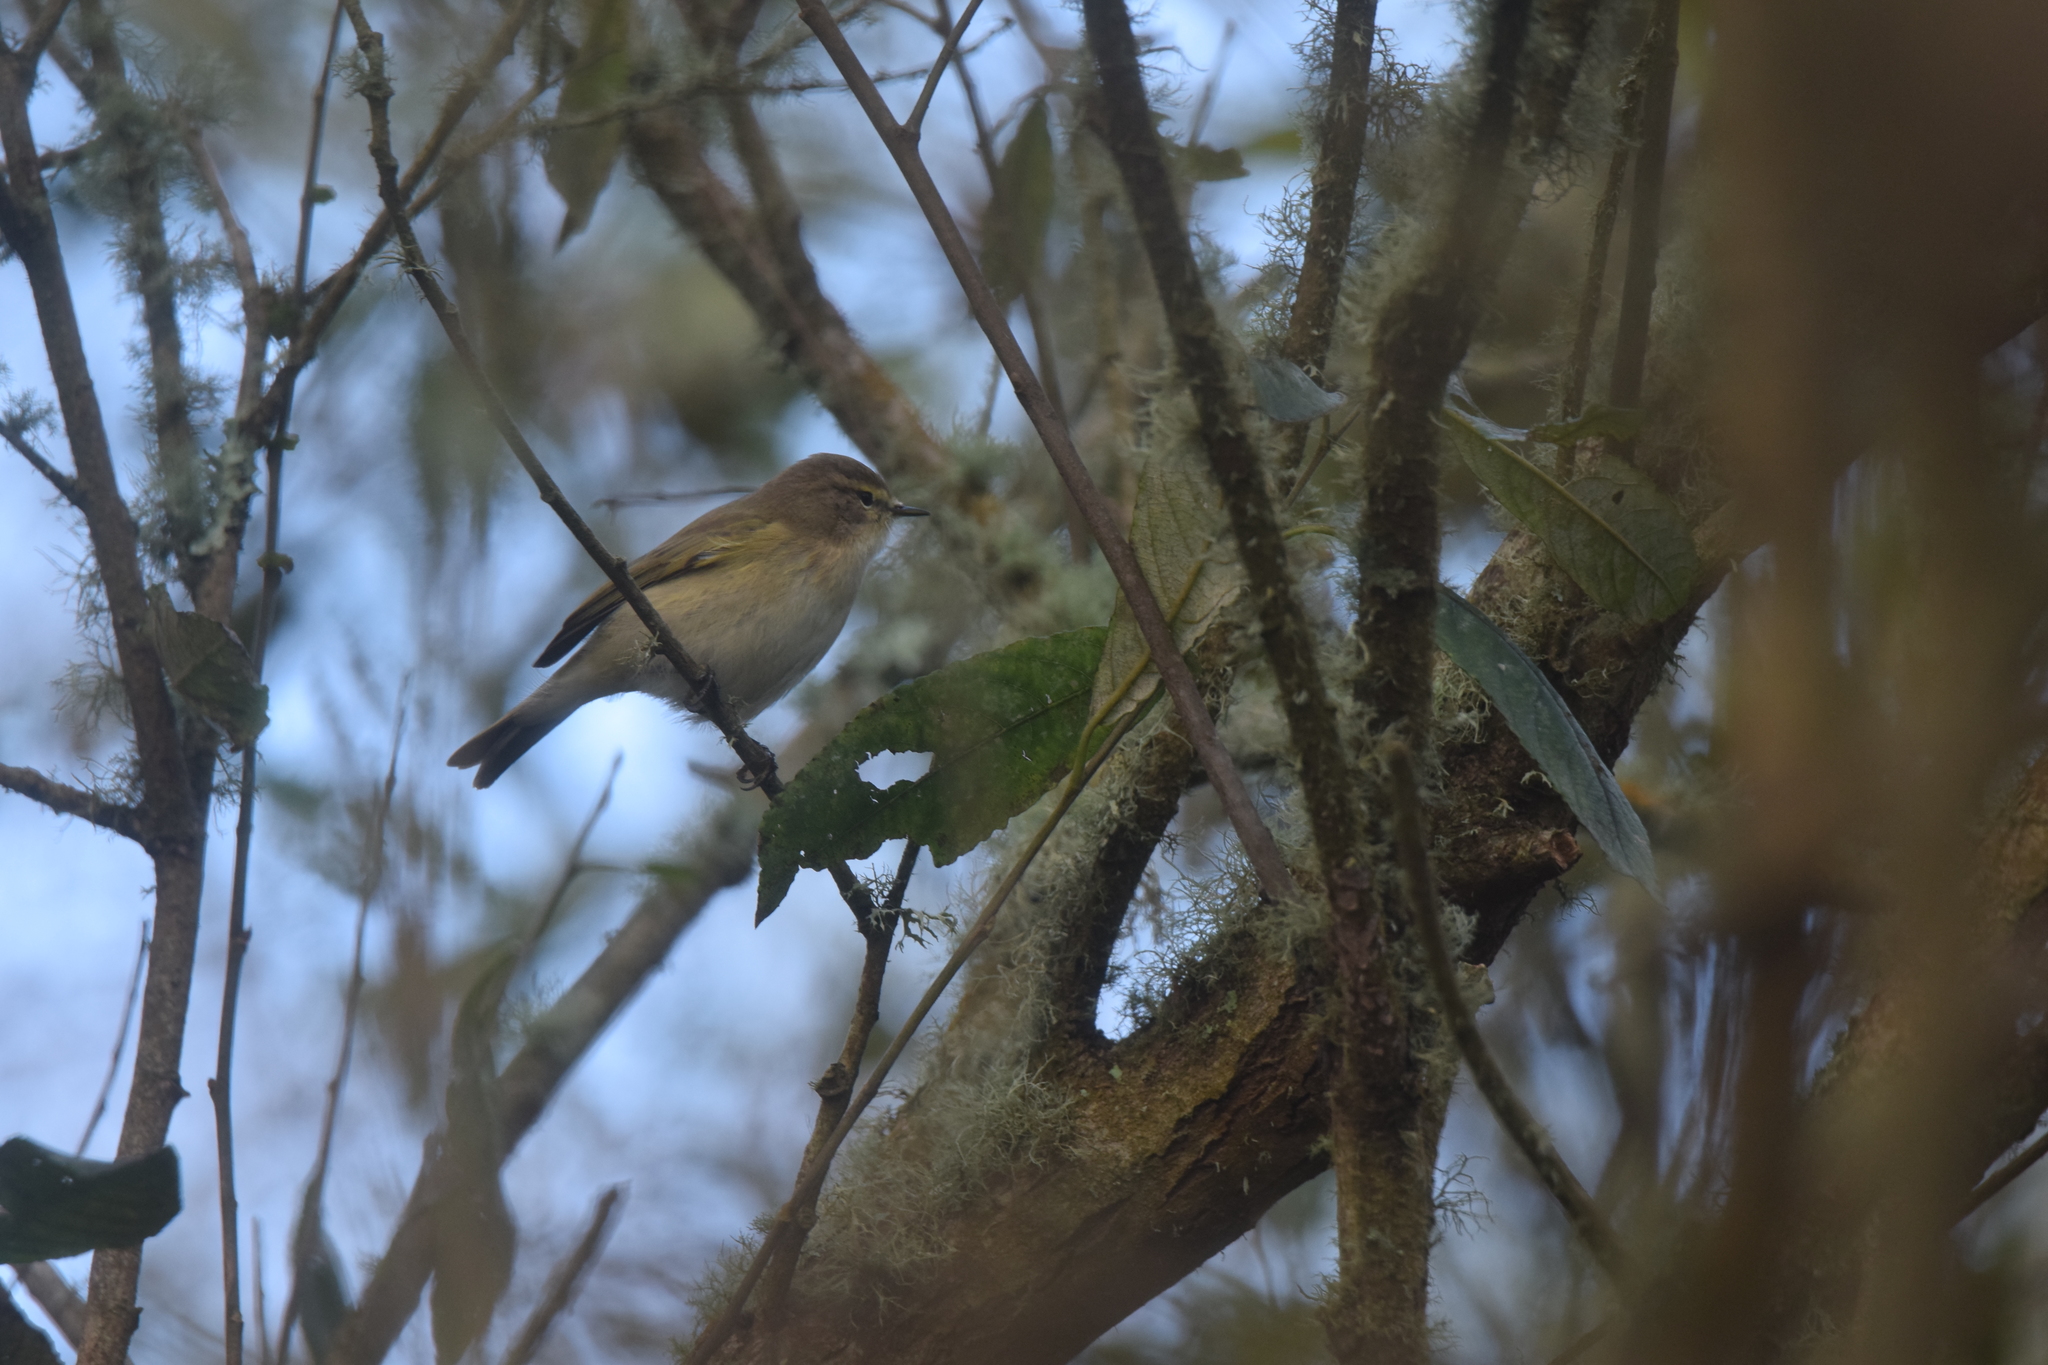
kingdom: Animalia
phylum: Chordata
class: Aves
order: Passeriformes
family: Phylloscopidae
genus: Phylloscopus
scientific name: Phylloscopus collybita
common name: Common chiffchaff
